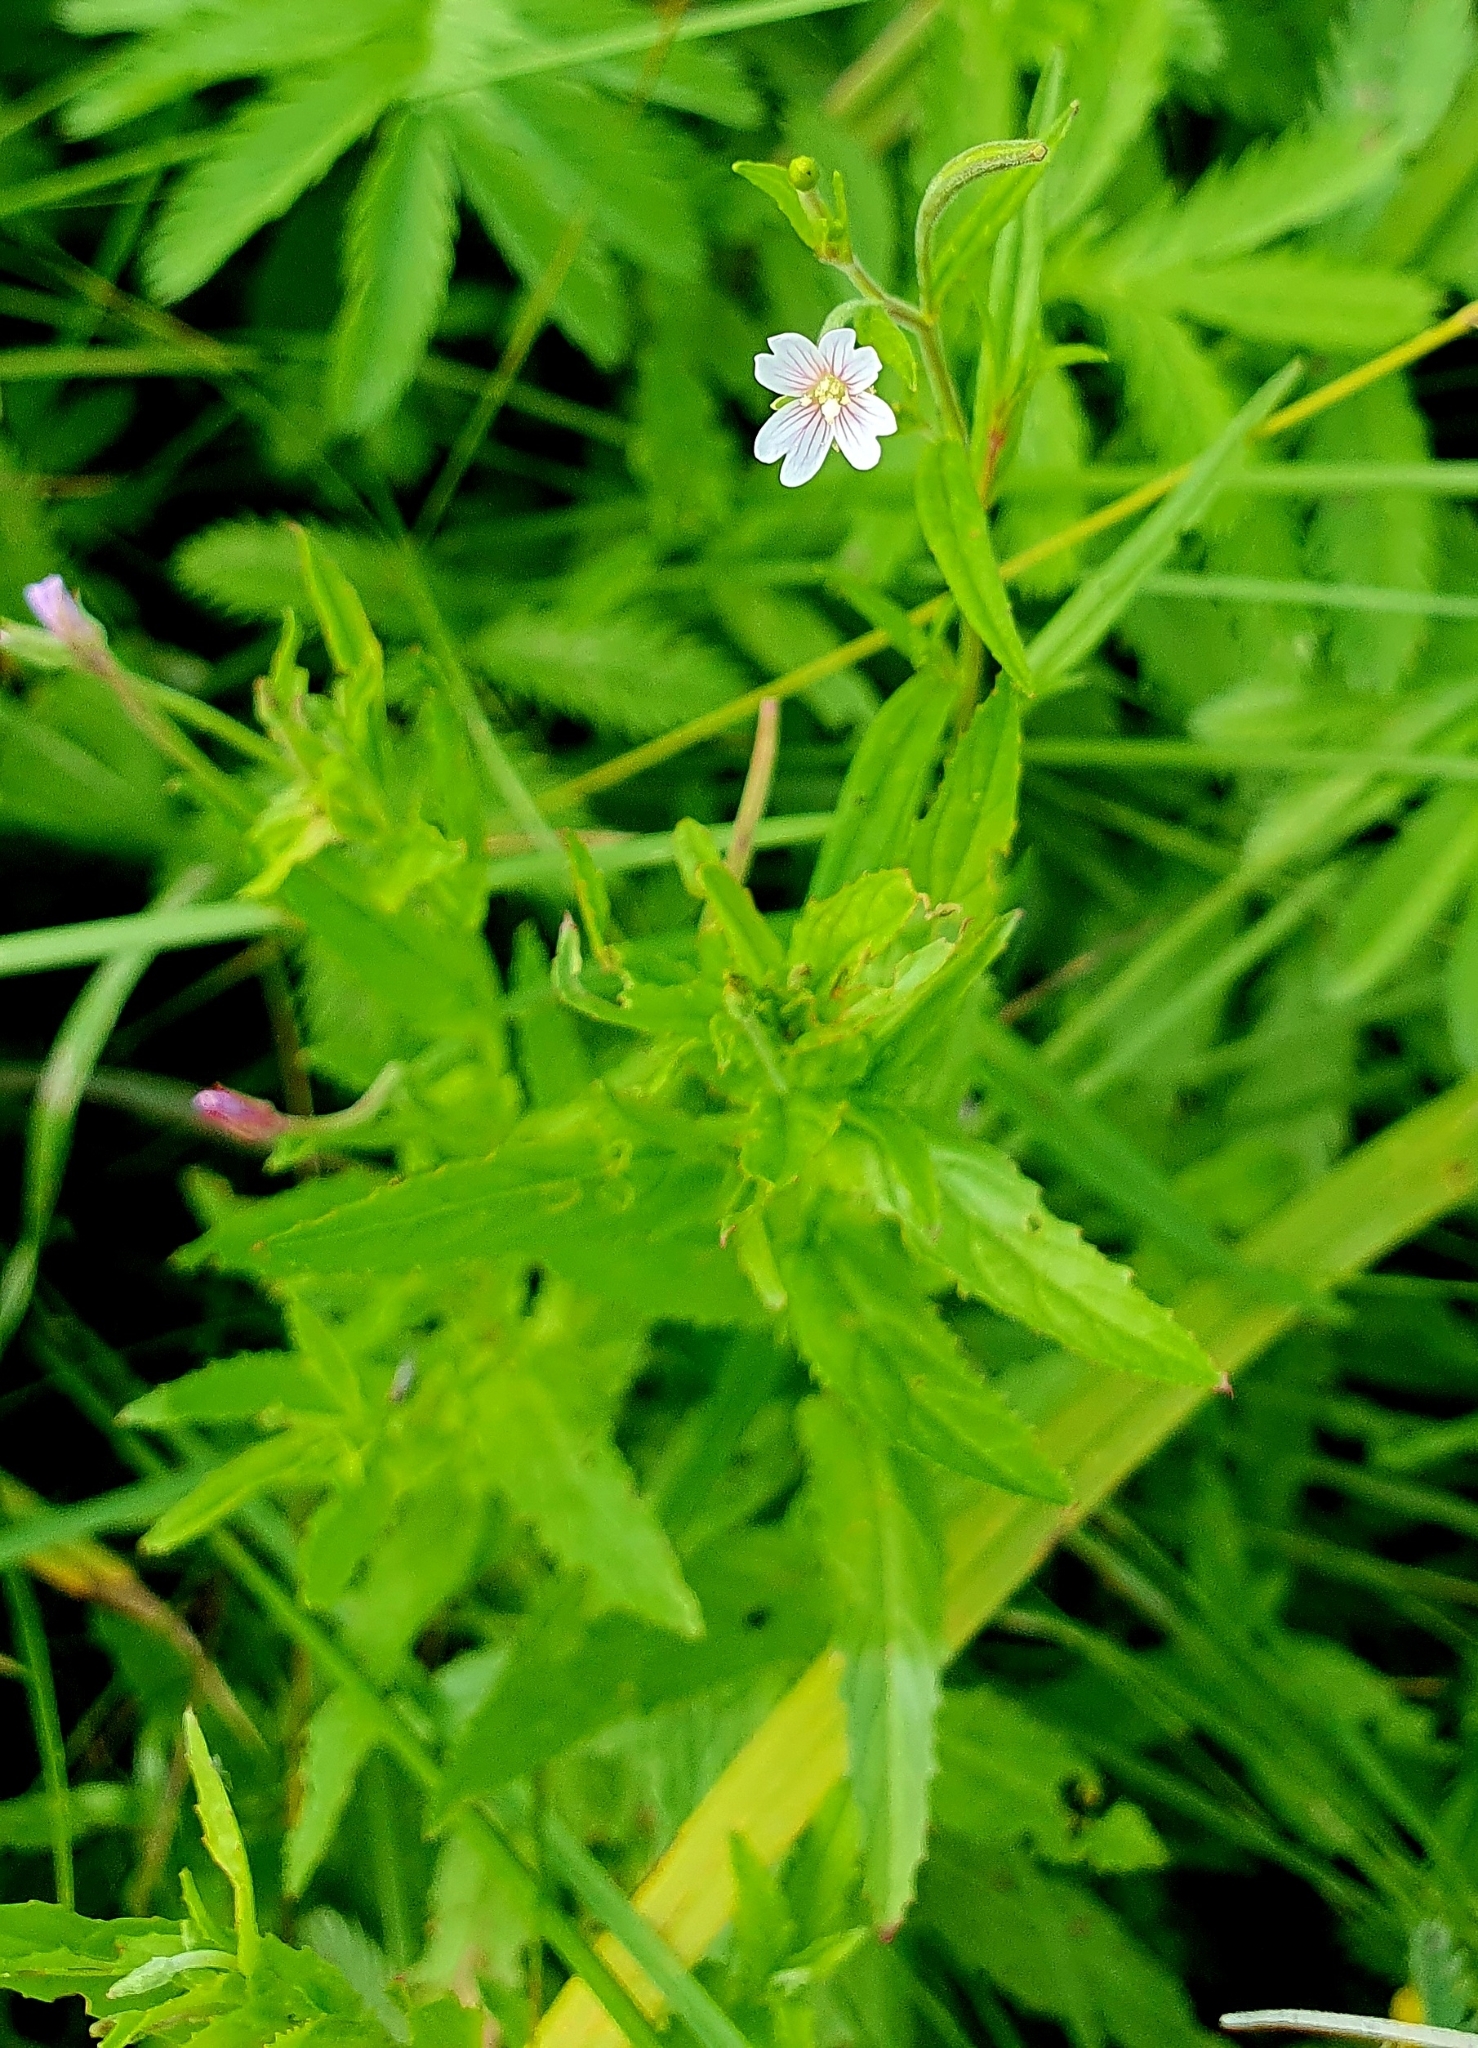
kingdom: Plantae
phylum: Tracheophyta
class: Magnoliopsida
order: Myrtales
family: Onagraceae
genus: Epilobium
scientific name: Epilobium pseudorubescens
